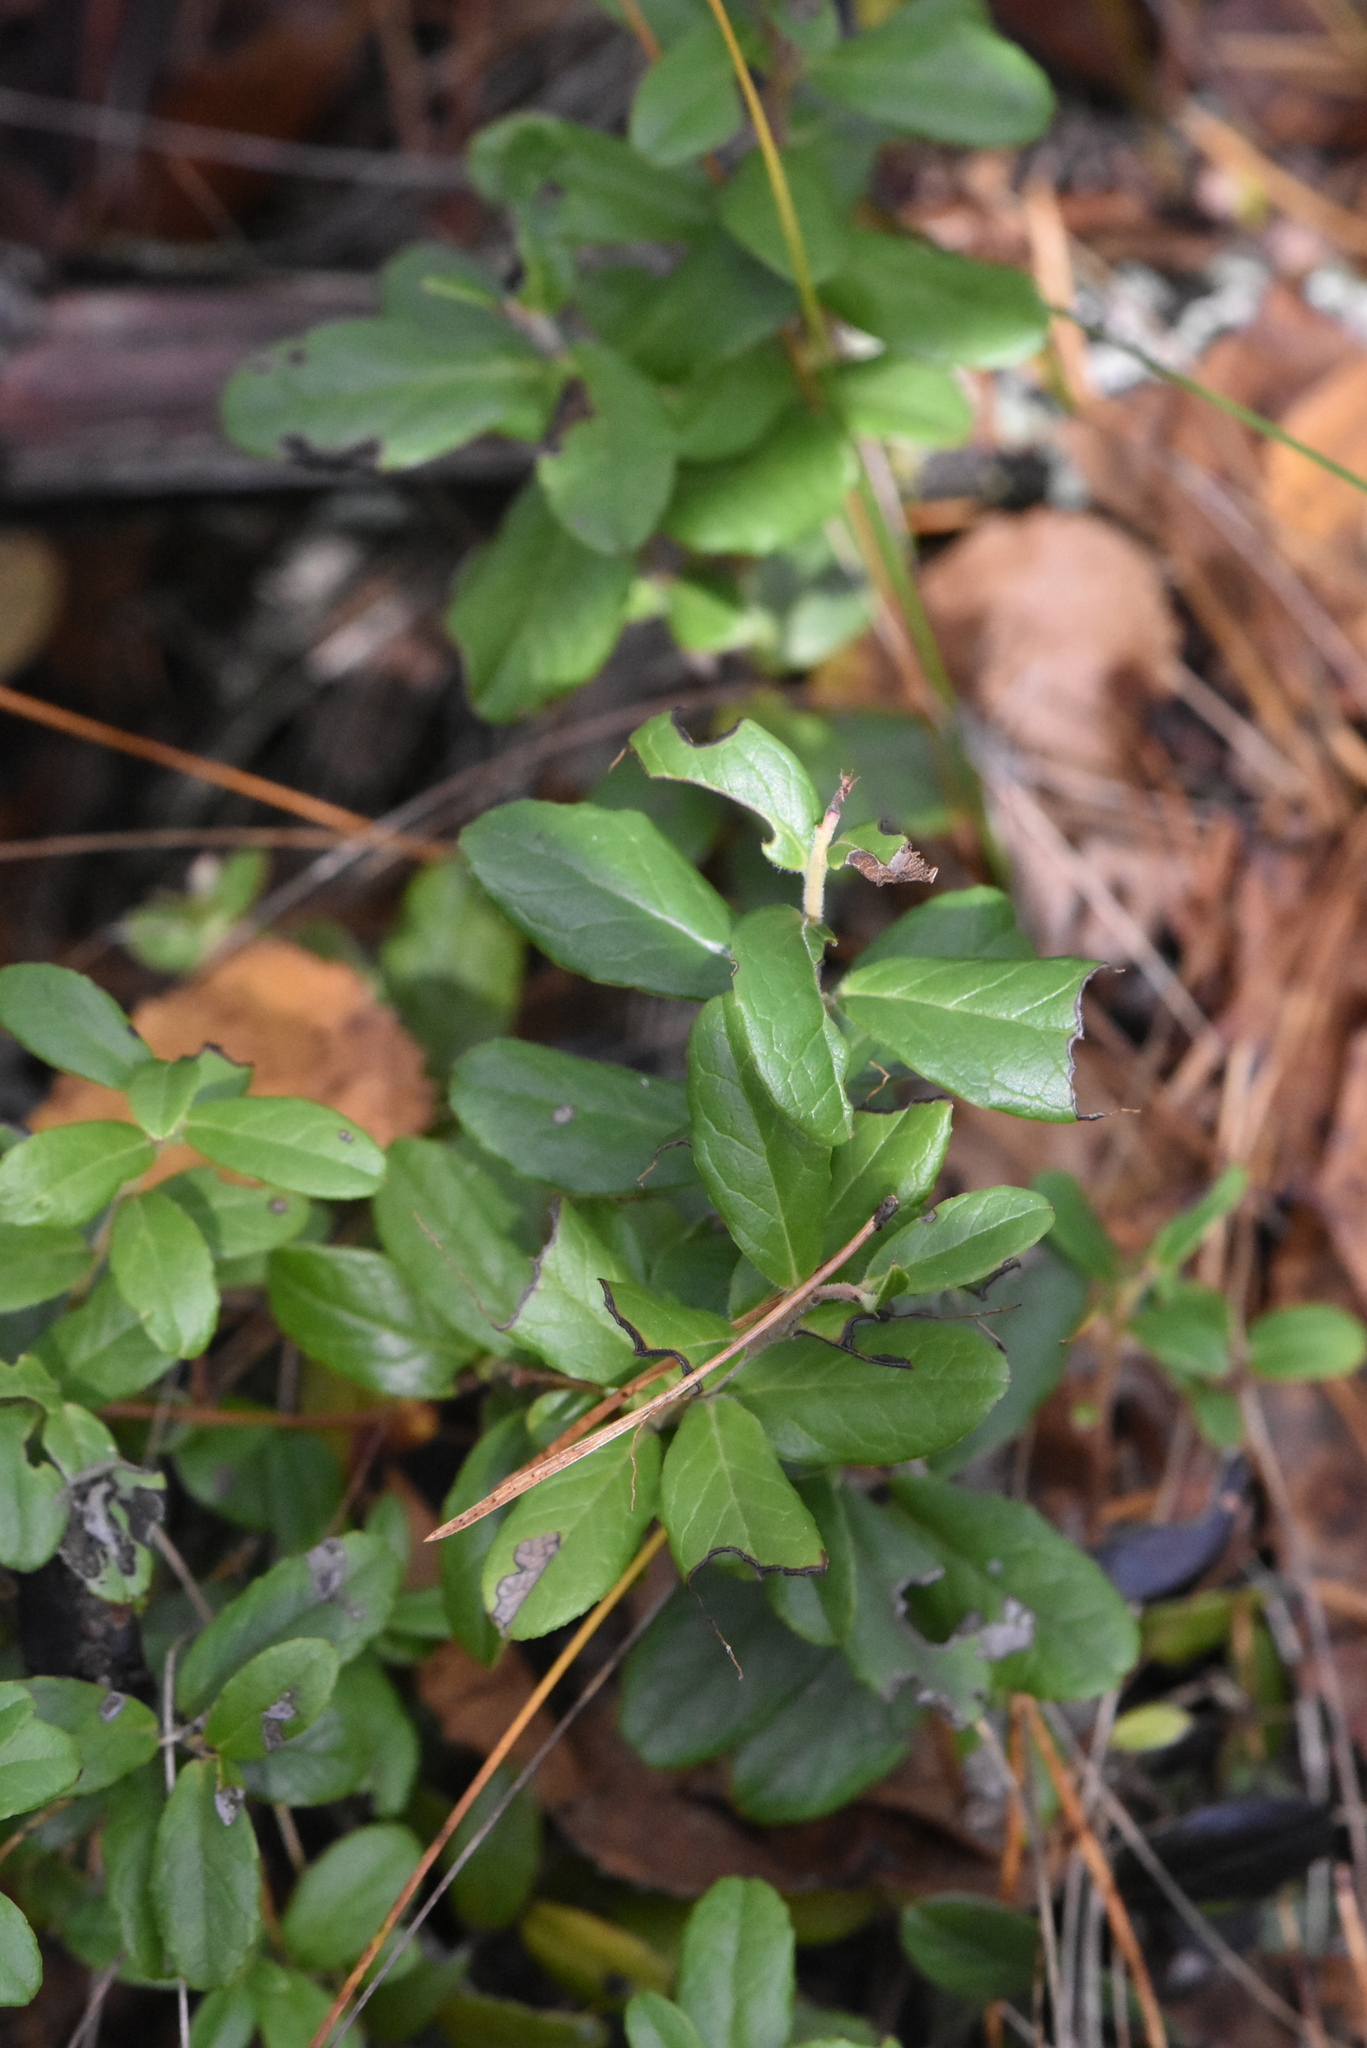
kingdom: Plantae
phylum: Tracheophyta
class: Magnoliopsida
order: Ericales
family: Ericaceae
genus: Vaccinium
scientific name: Vaccinium vitis-idaea
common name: Cowberry
